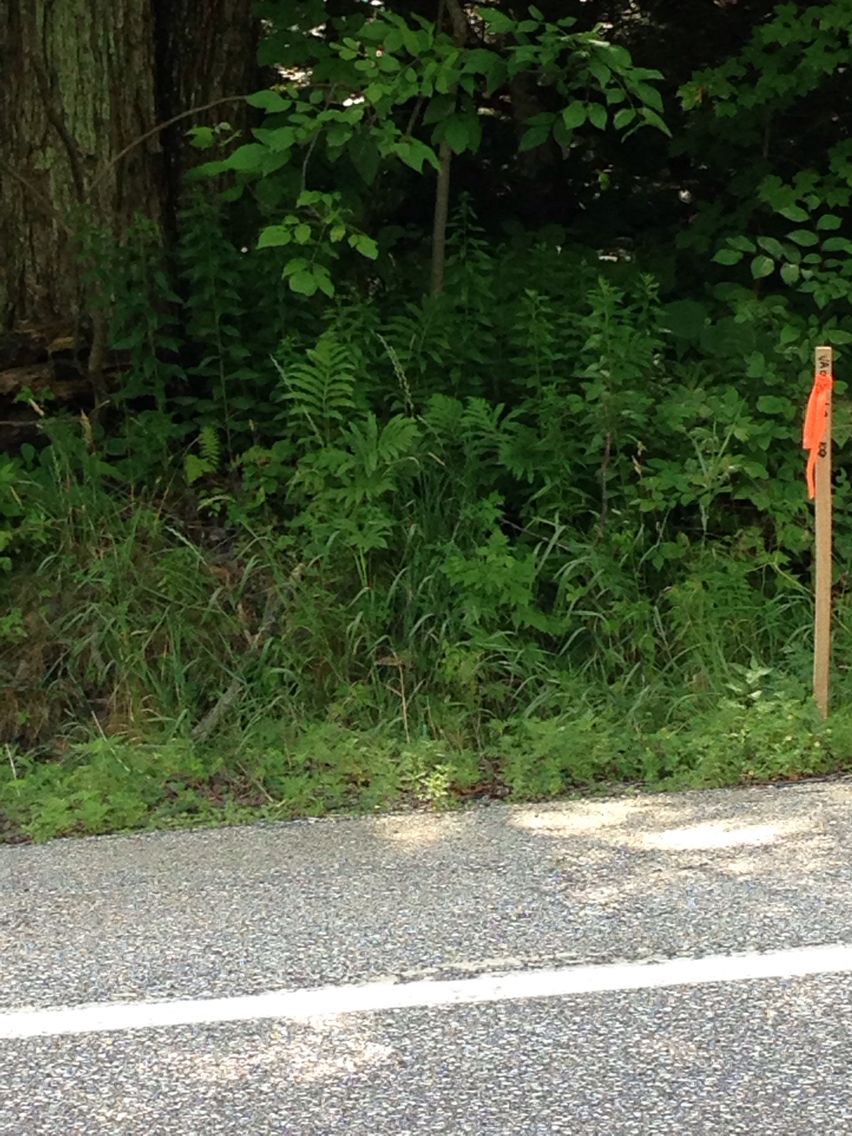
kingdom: Plantae
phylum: Tracheophyta
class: Polypodiopsida
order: Polypodiales
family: Onocleaceae
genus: Onoclea
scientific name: Onoclea sensibilis
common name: Sensitive fern
